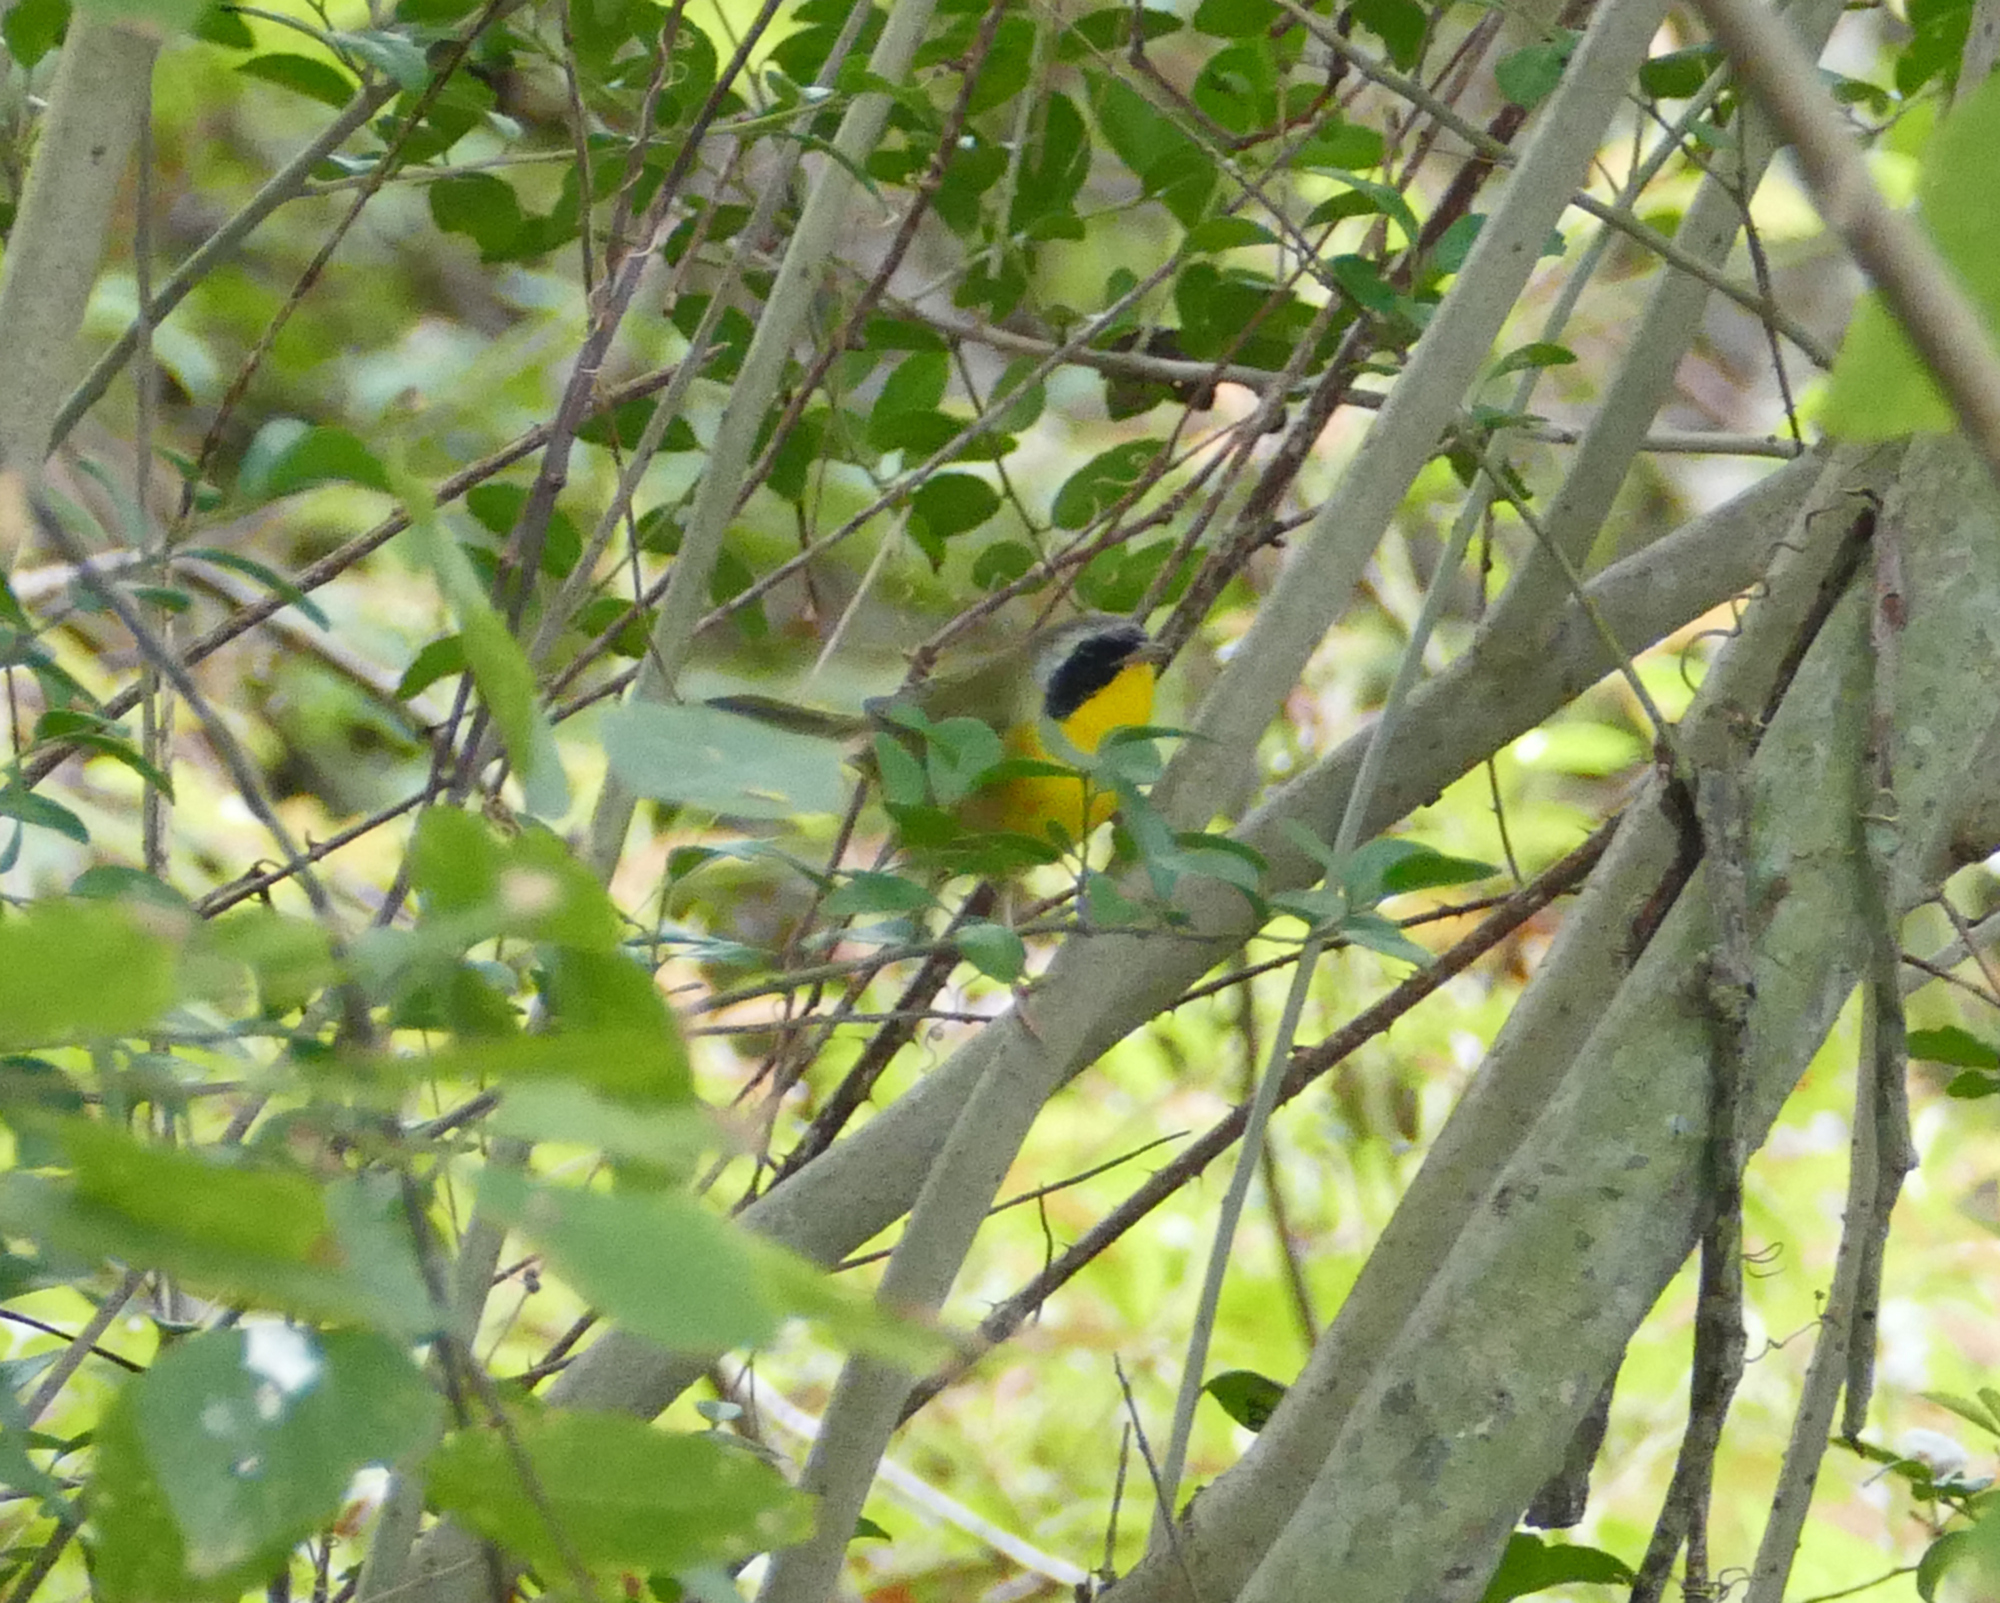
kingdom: Animalia
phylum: Chordata
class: Aves
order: Passeriformes
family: Parulidae
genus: Geothlypis
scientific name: Geothlypis trichas
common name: Common yellowthroat
